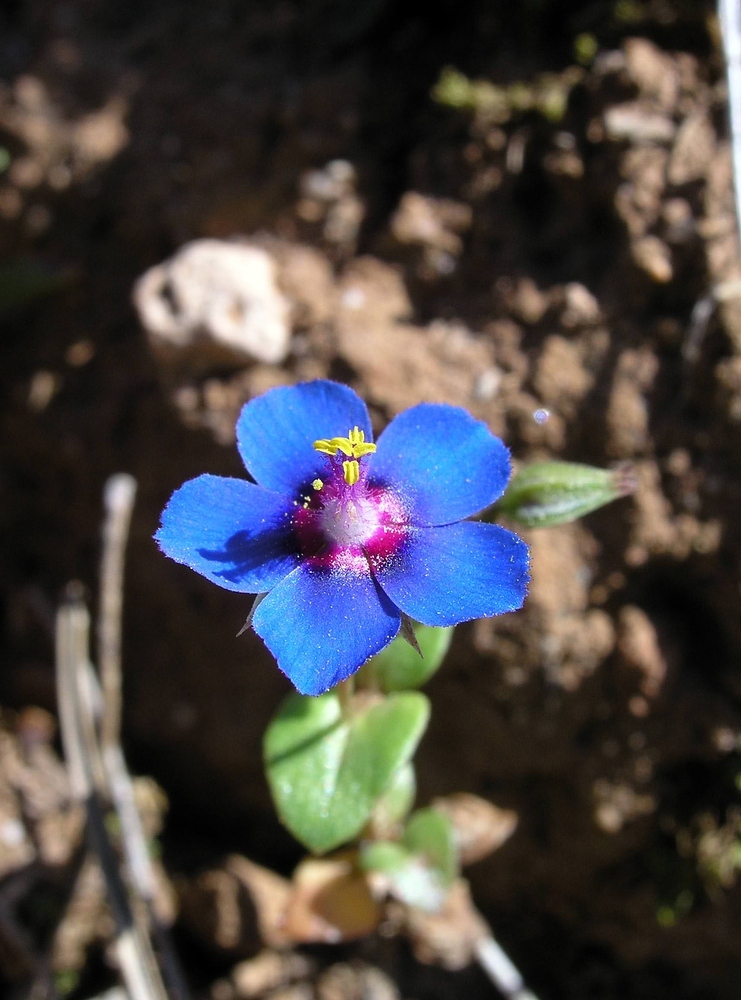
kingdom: Plantae
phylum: Tracheophyta
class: Magnoliopsida
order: Ericales
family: Primulaceae
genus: Lysimachia
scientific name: Lysimachia loeflingii
